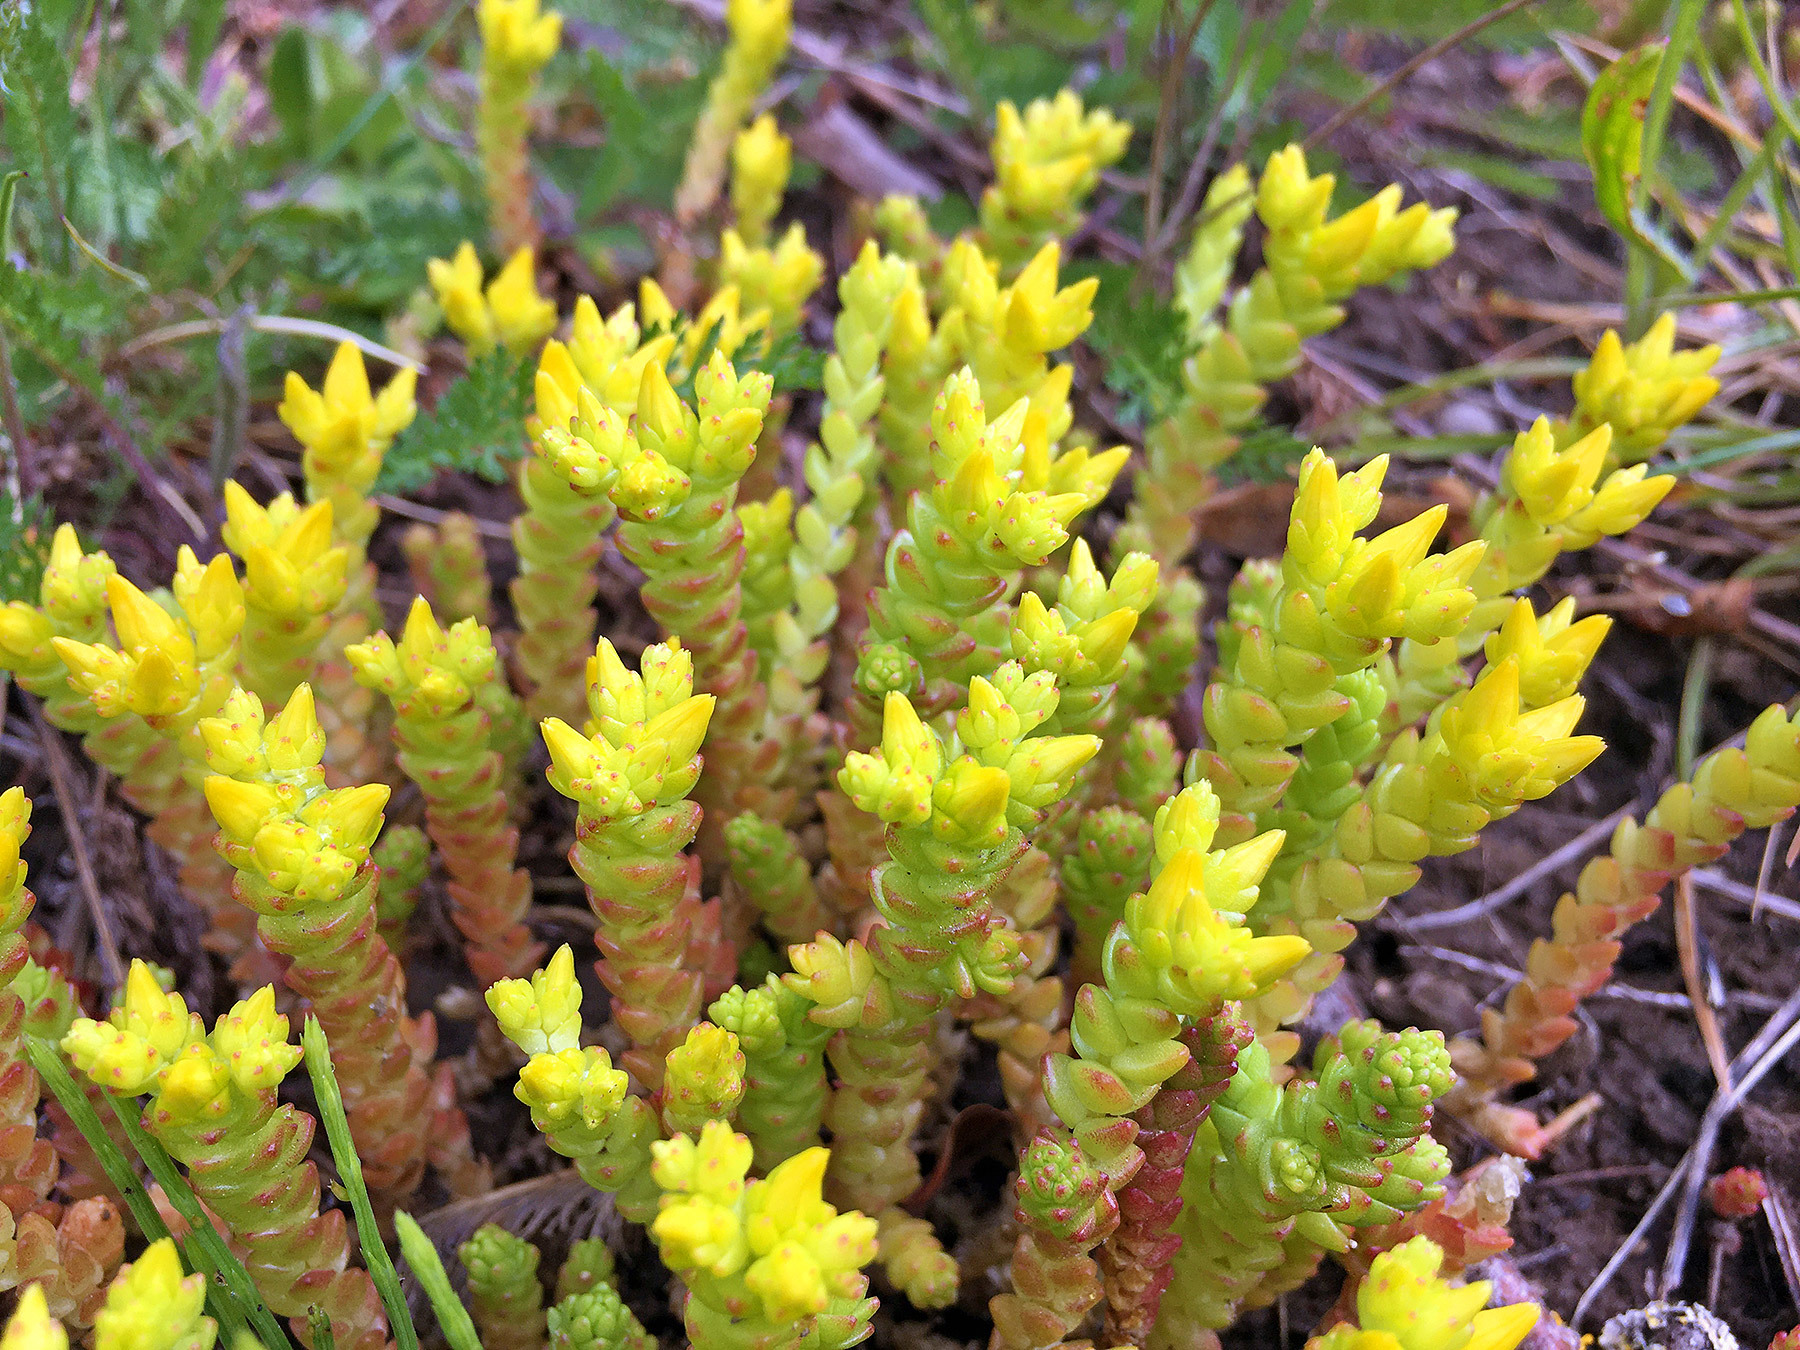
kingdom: Plantae
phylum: Tracheophyta
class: Magnoliopsida
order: Saxifragales
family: Crassulaceae
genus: Sedum
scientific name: Sedum acre
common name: Biting stonecrop
